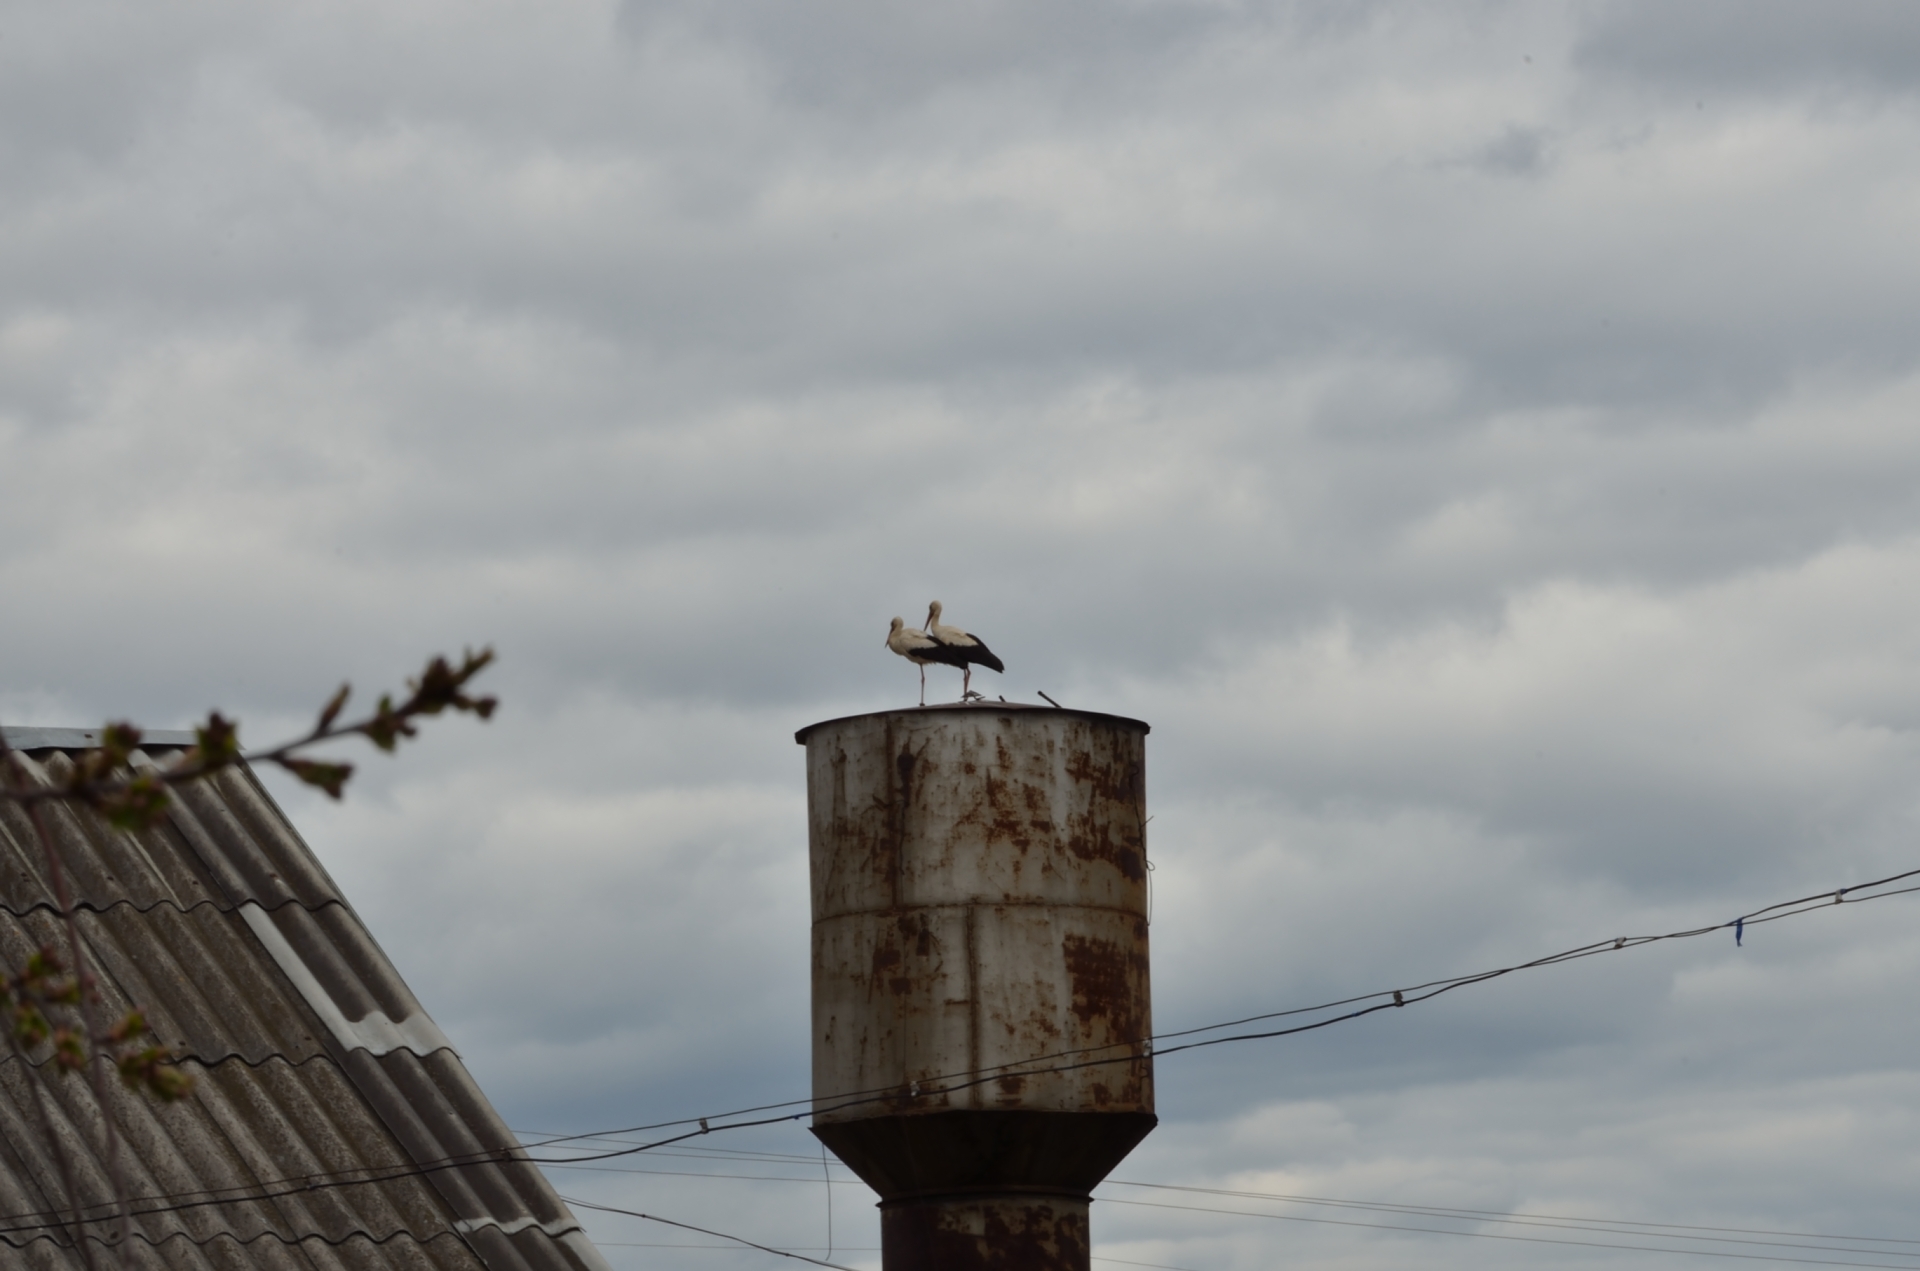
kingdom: Animalia
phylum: Chordata
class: Aves
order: Ciconiiformes
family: Ciconiidae
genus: Ciconia
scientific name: Ciconia ciconia
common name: White stork
